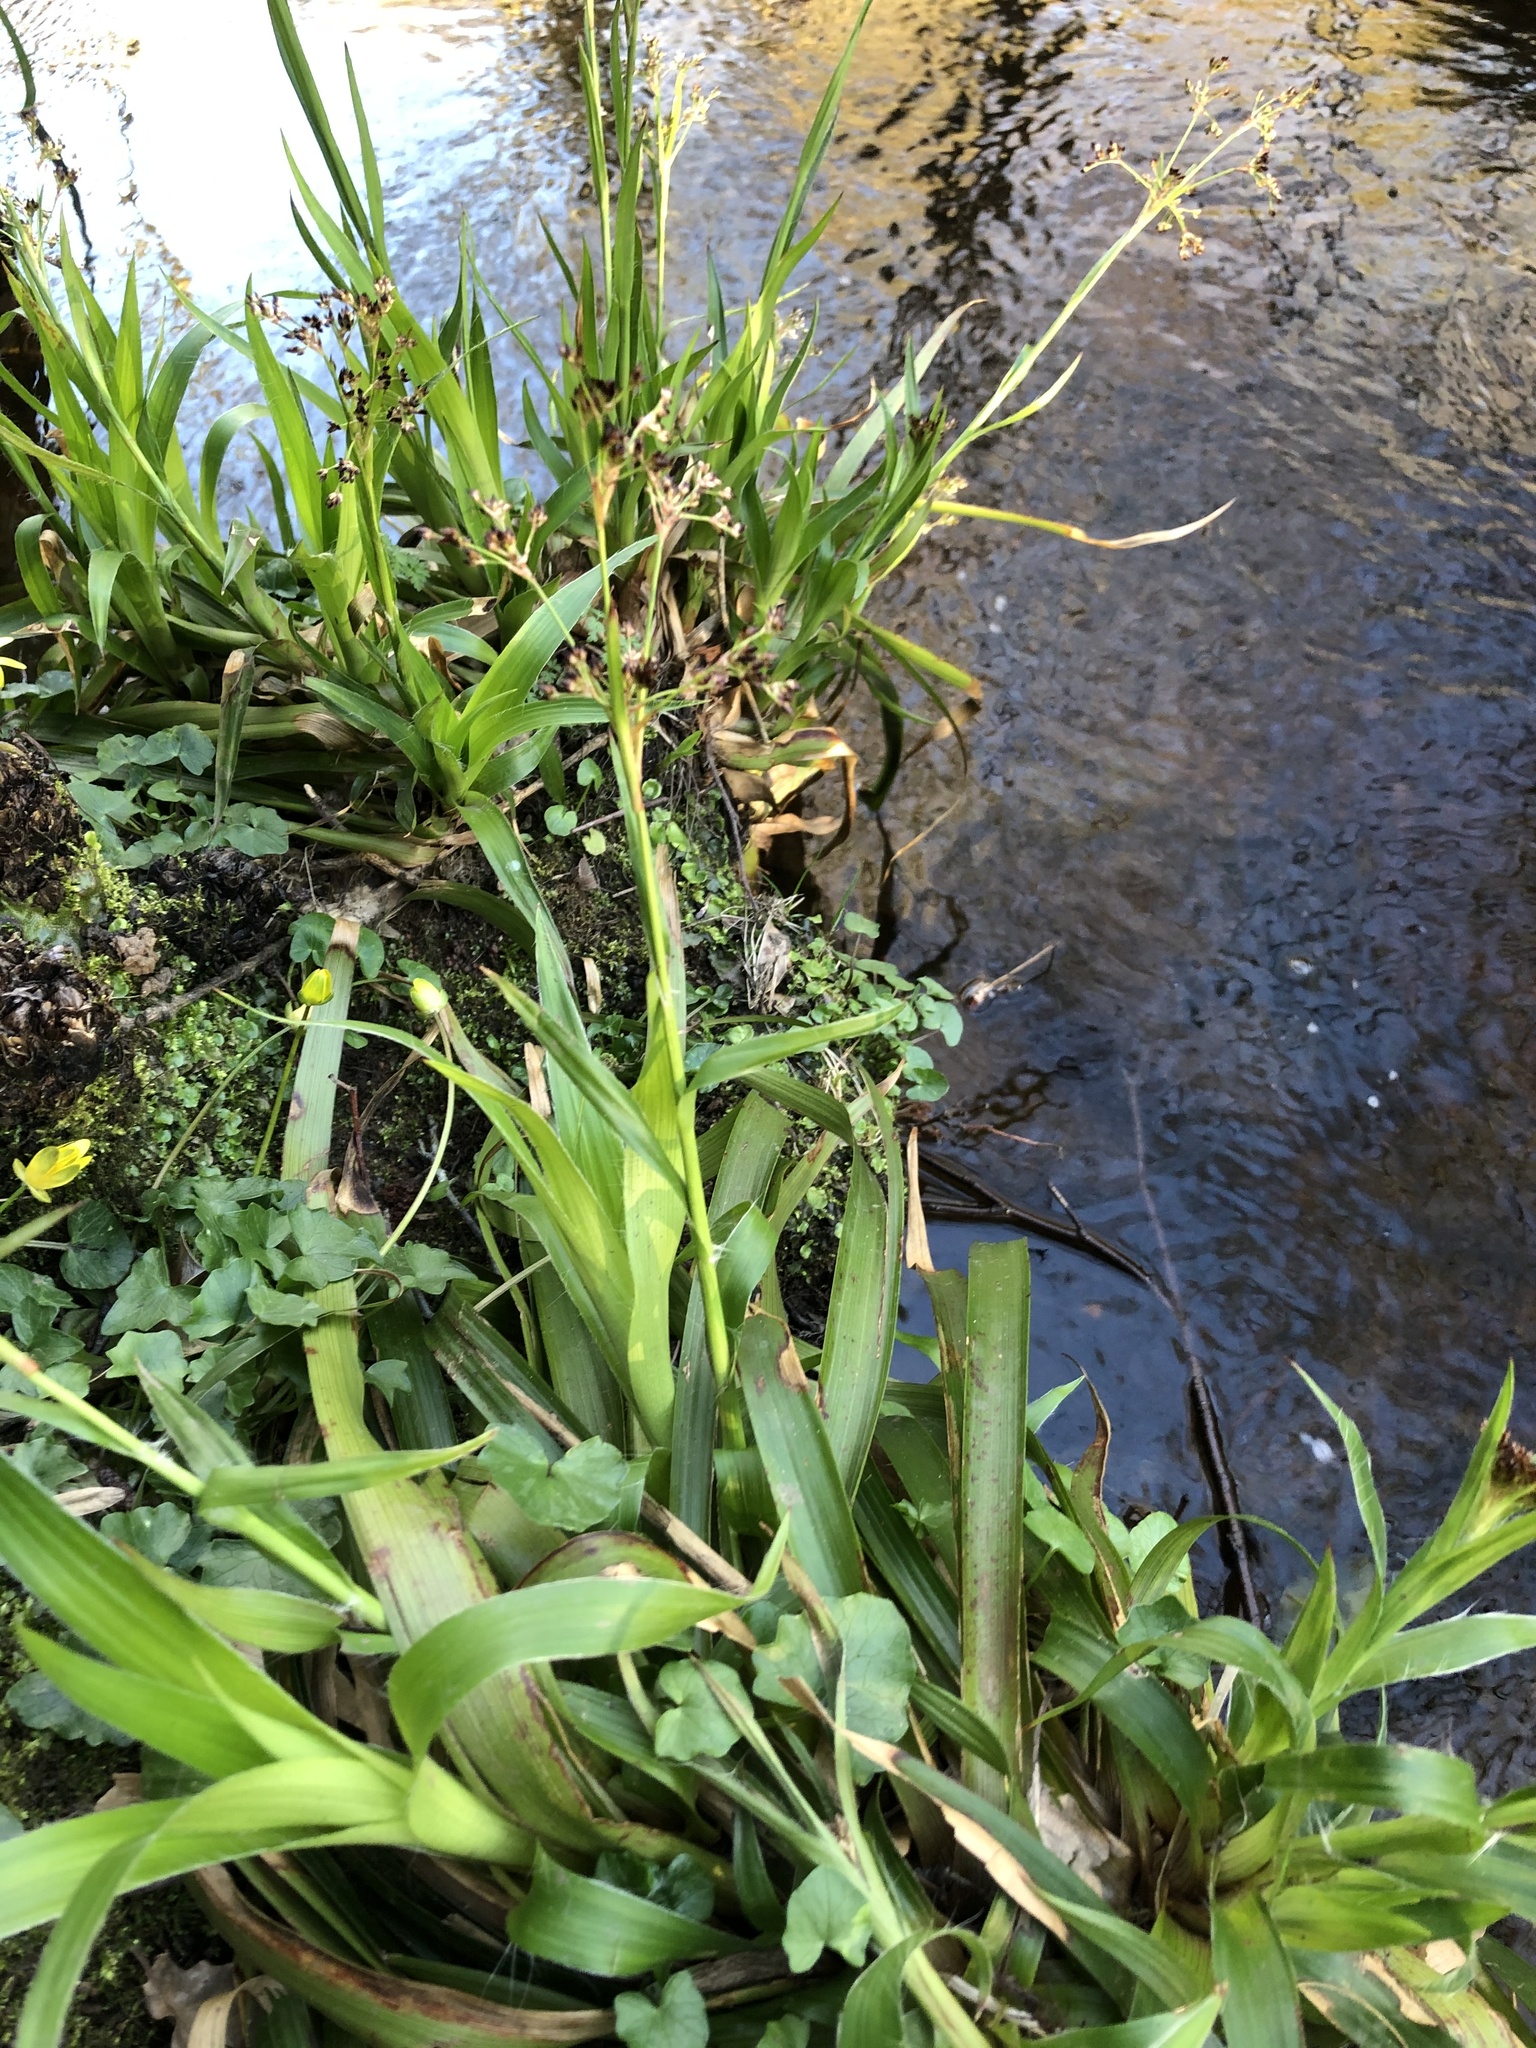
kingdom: Plantae
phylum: Tracheophyta
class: Liliopsida
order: Poales
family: Juncaceae
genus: Luzula
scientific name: Luzula sylvatica
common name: Great wood-rush
